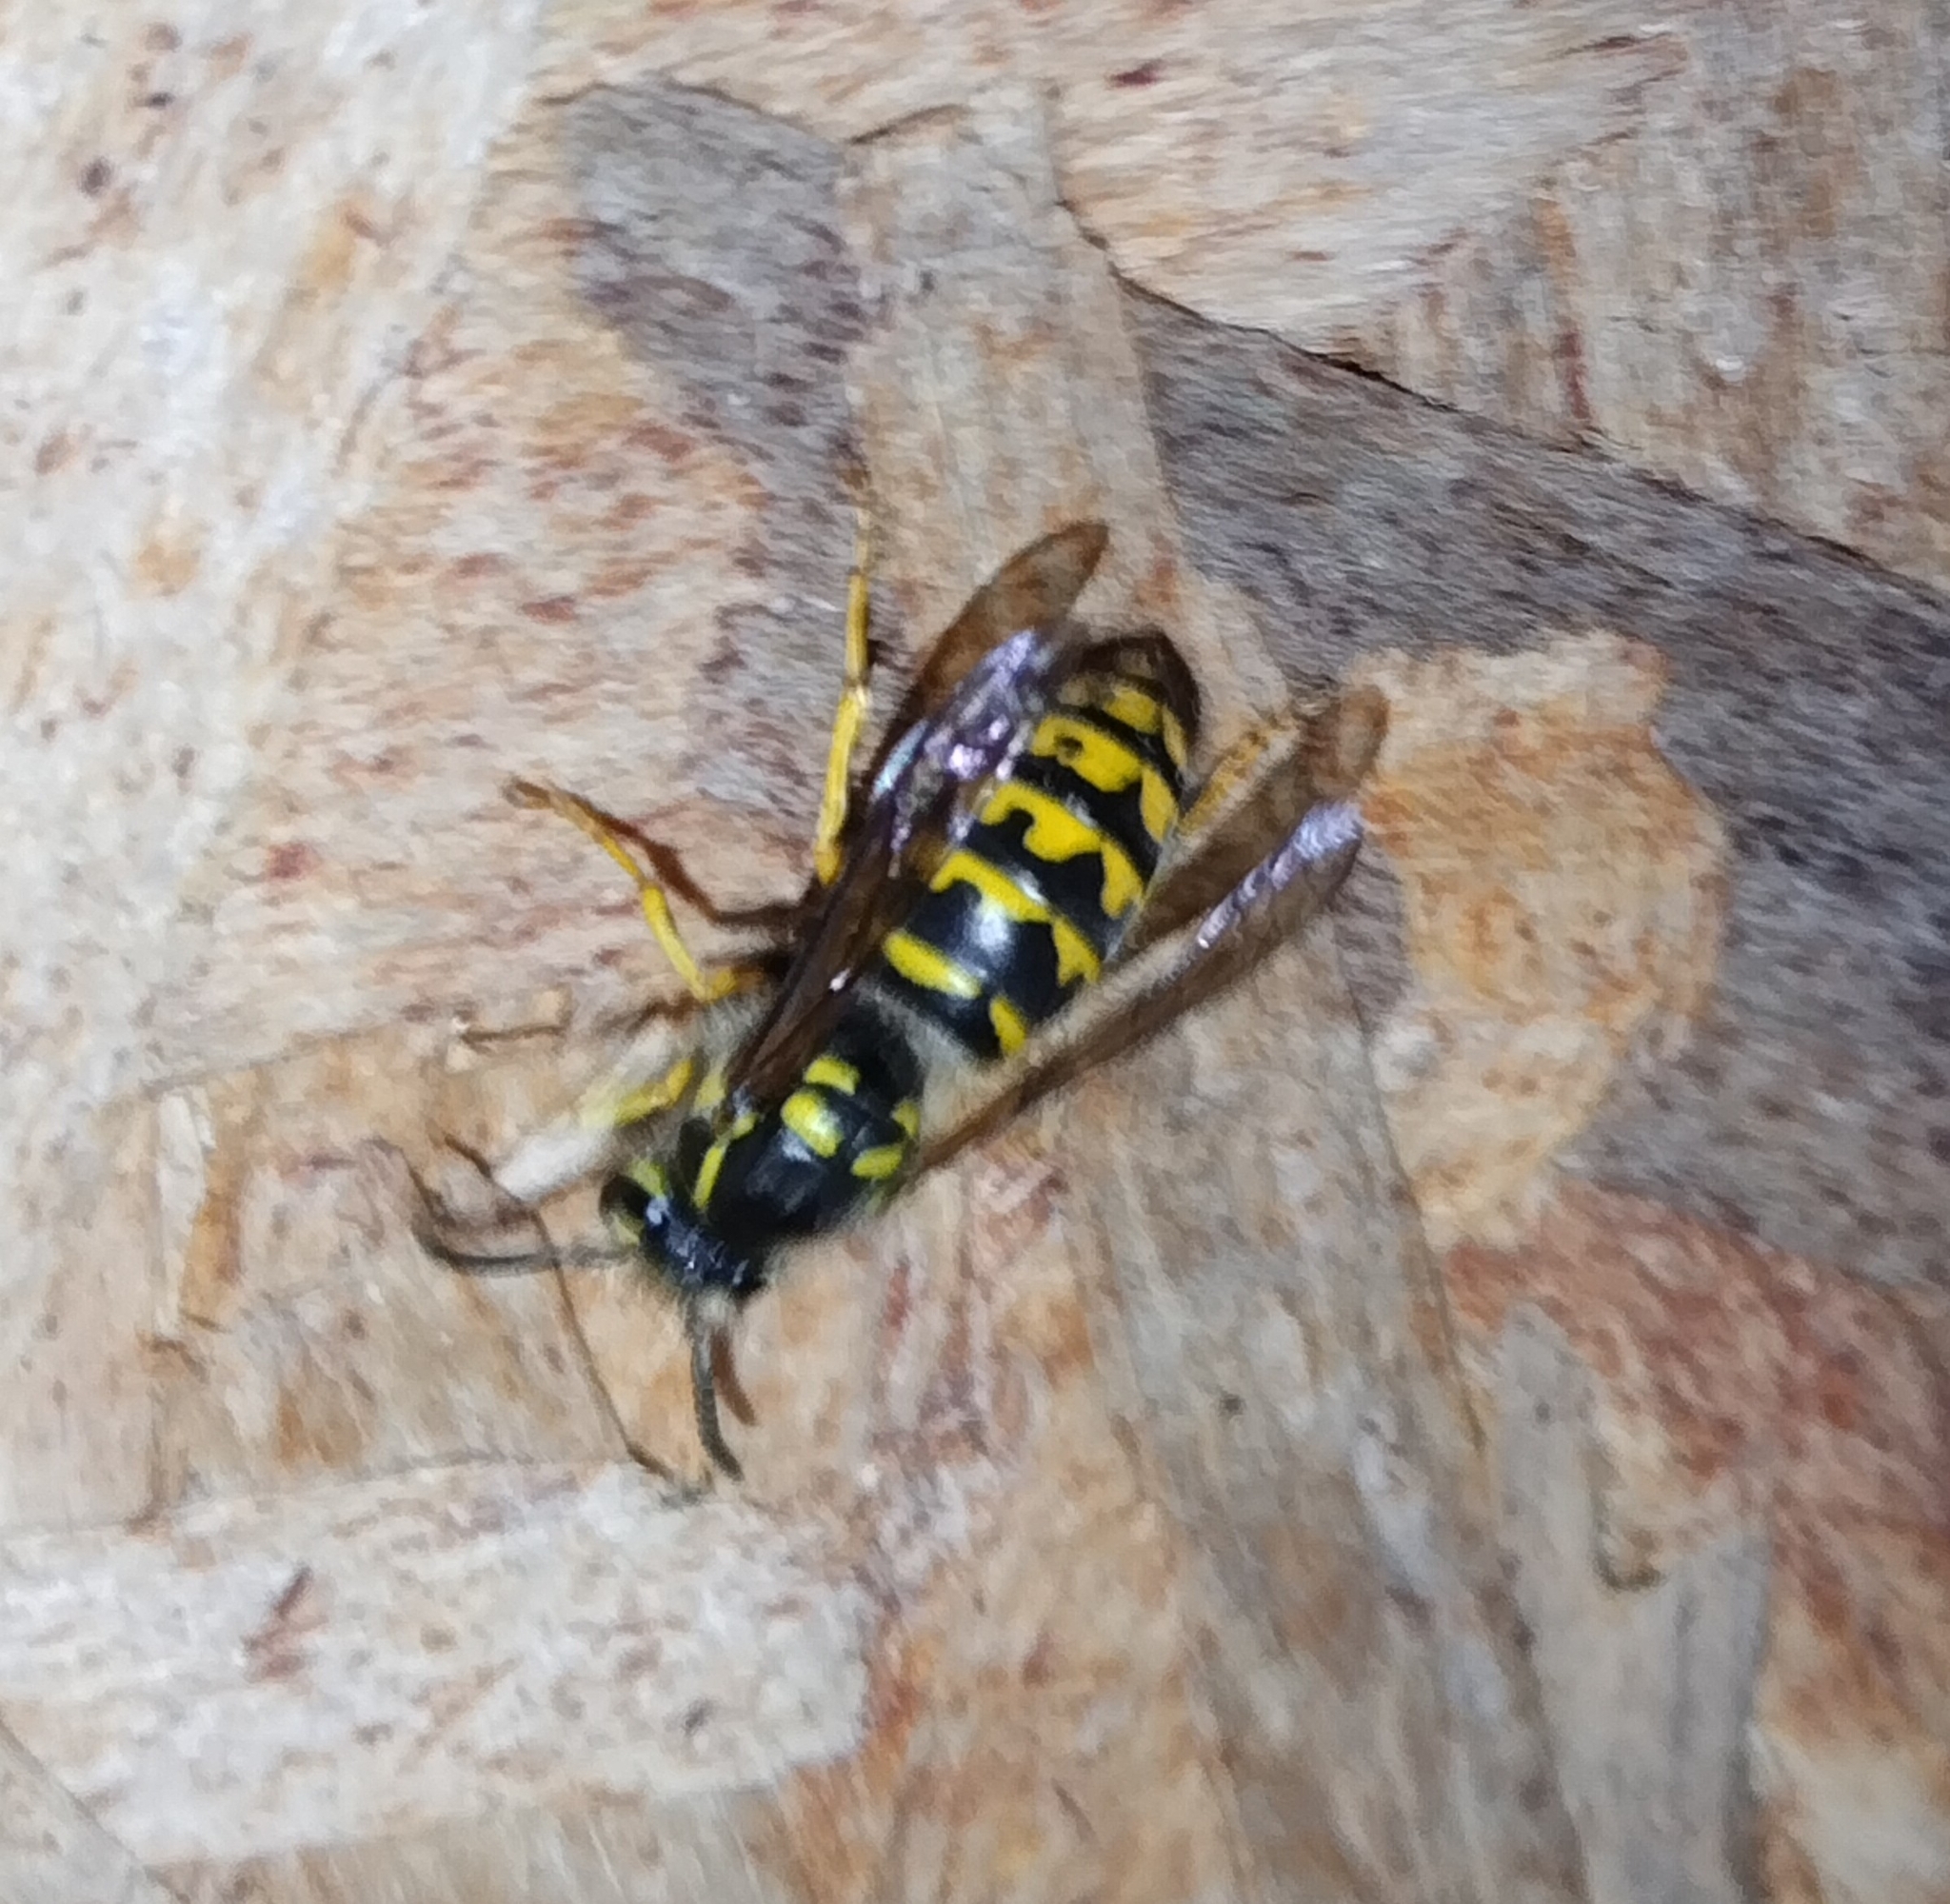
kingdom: Animalia
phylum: Arthropoda
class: Insecta
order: Hymenoptera
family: Vespidae
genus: Dolichovespula
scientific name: Dolichovespula arenaria
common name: Aerial yellowjacket
